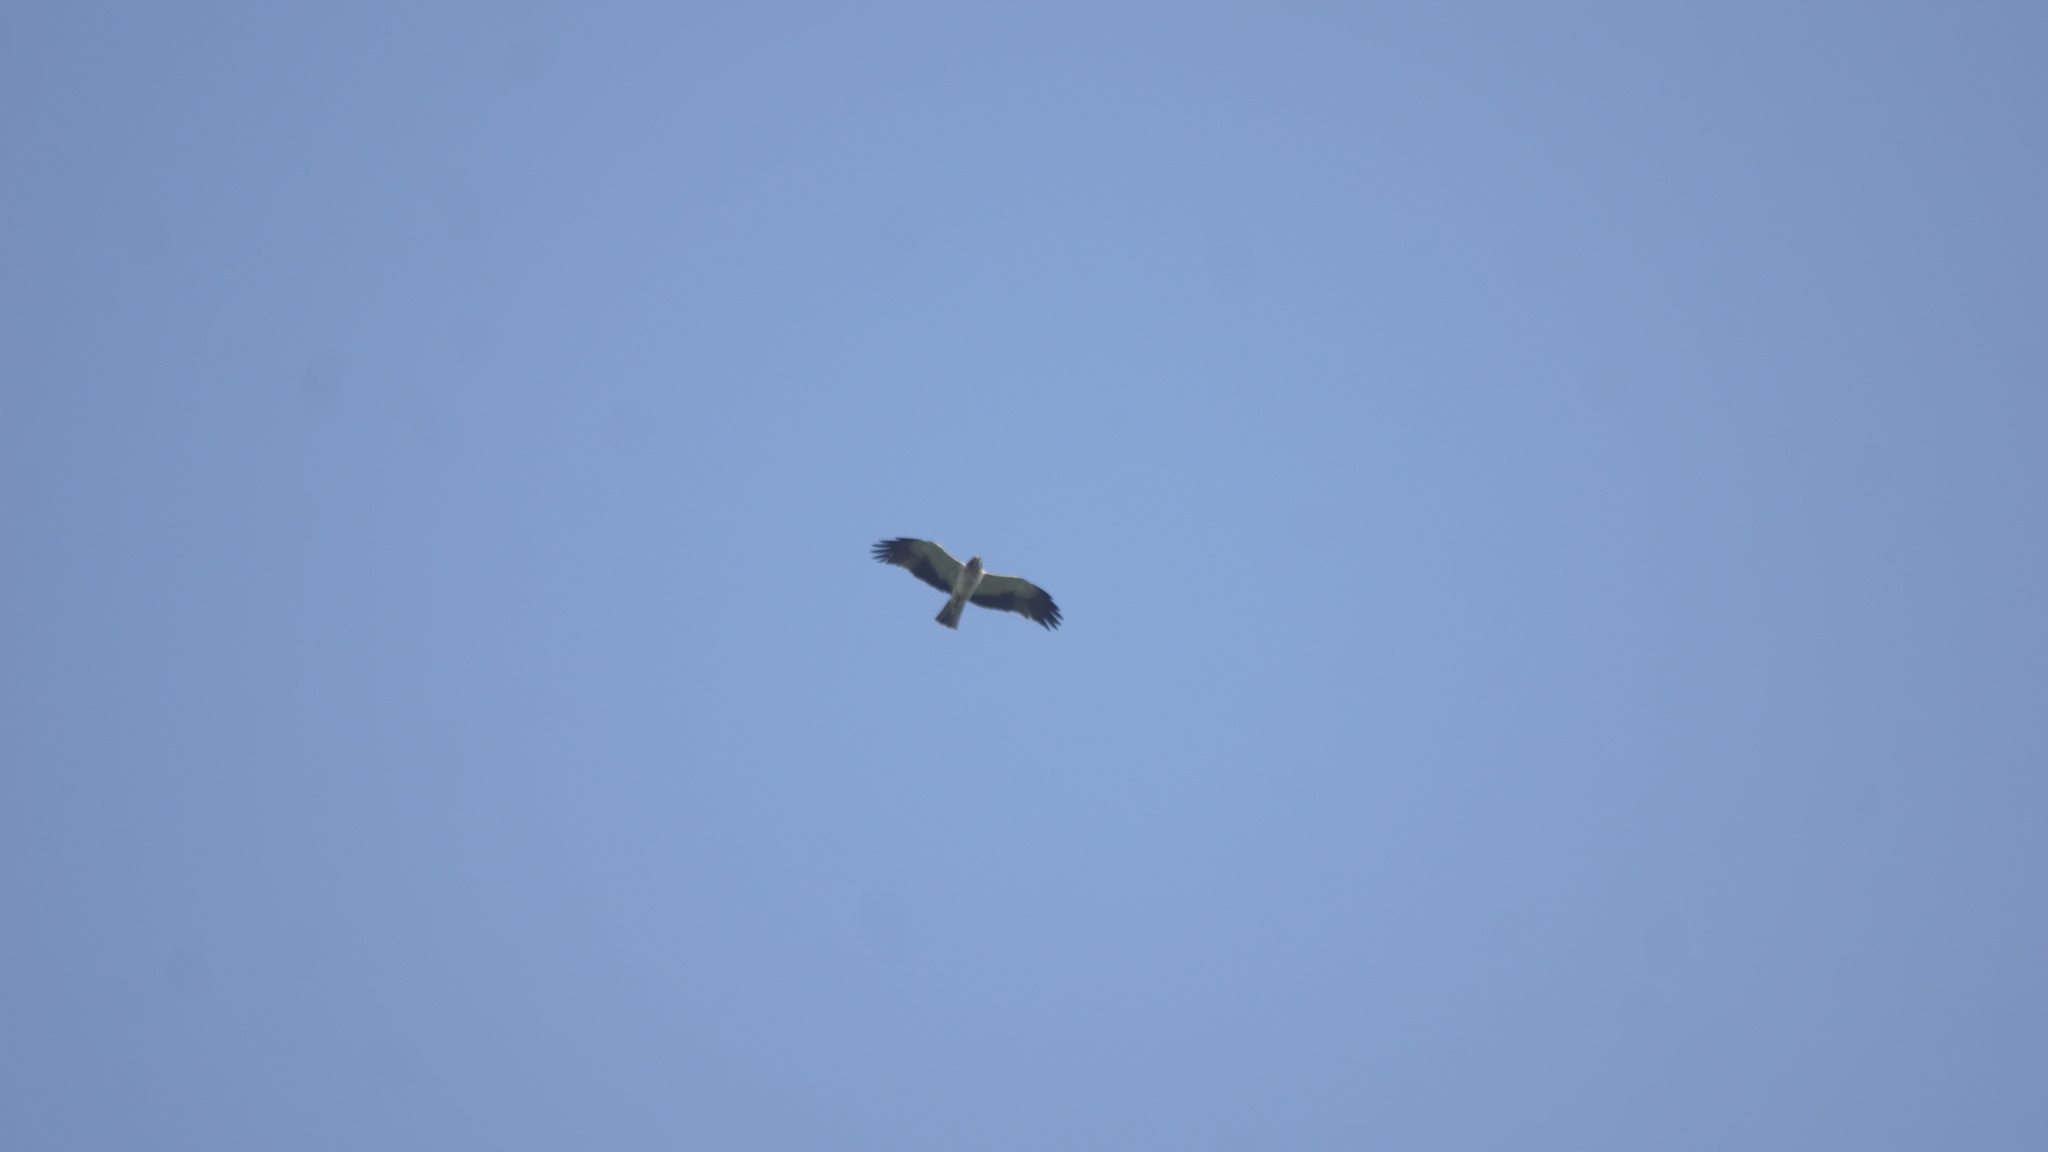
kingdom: Animalia
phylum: Chordata
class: Aves
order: Accipitriformes
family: Accipitridae
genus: Hieraaetus
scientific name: Hieraaetus pennatus
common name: Booted eagle
